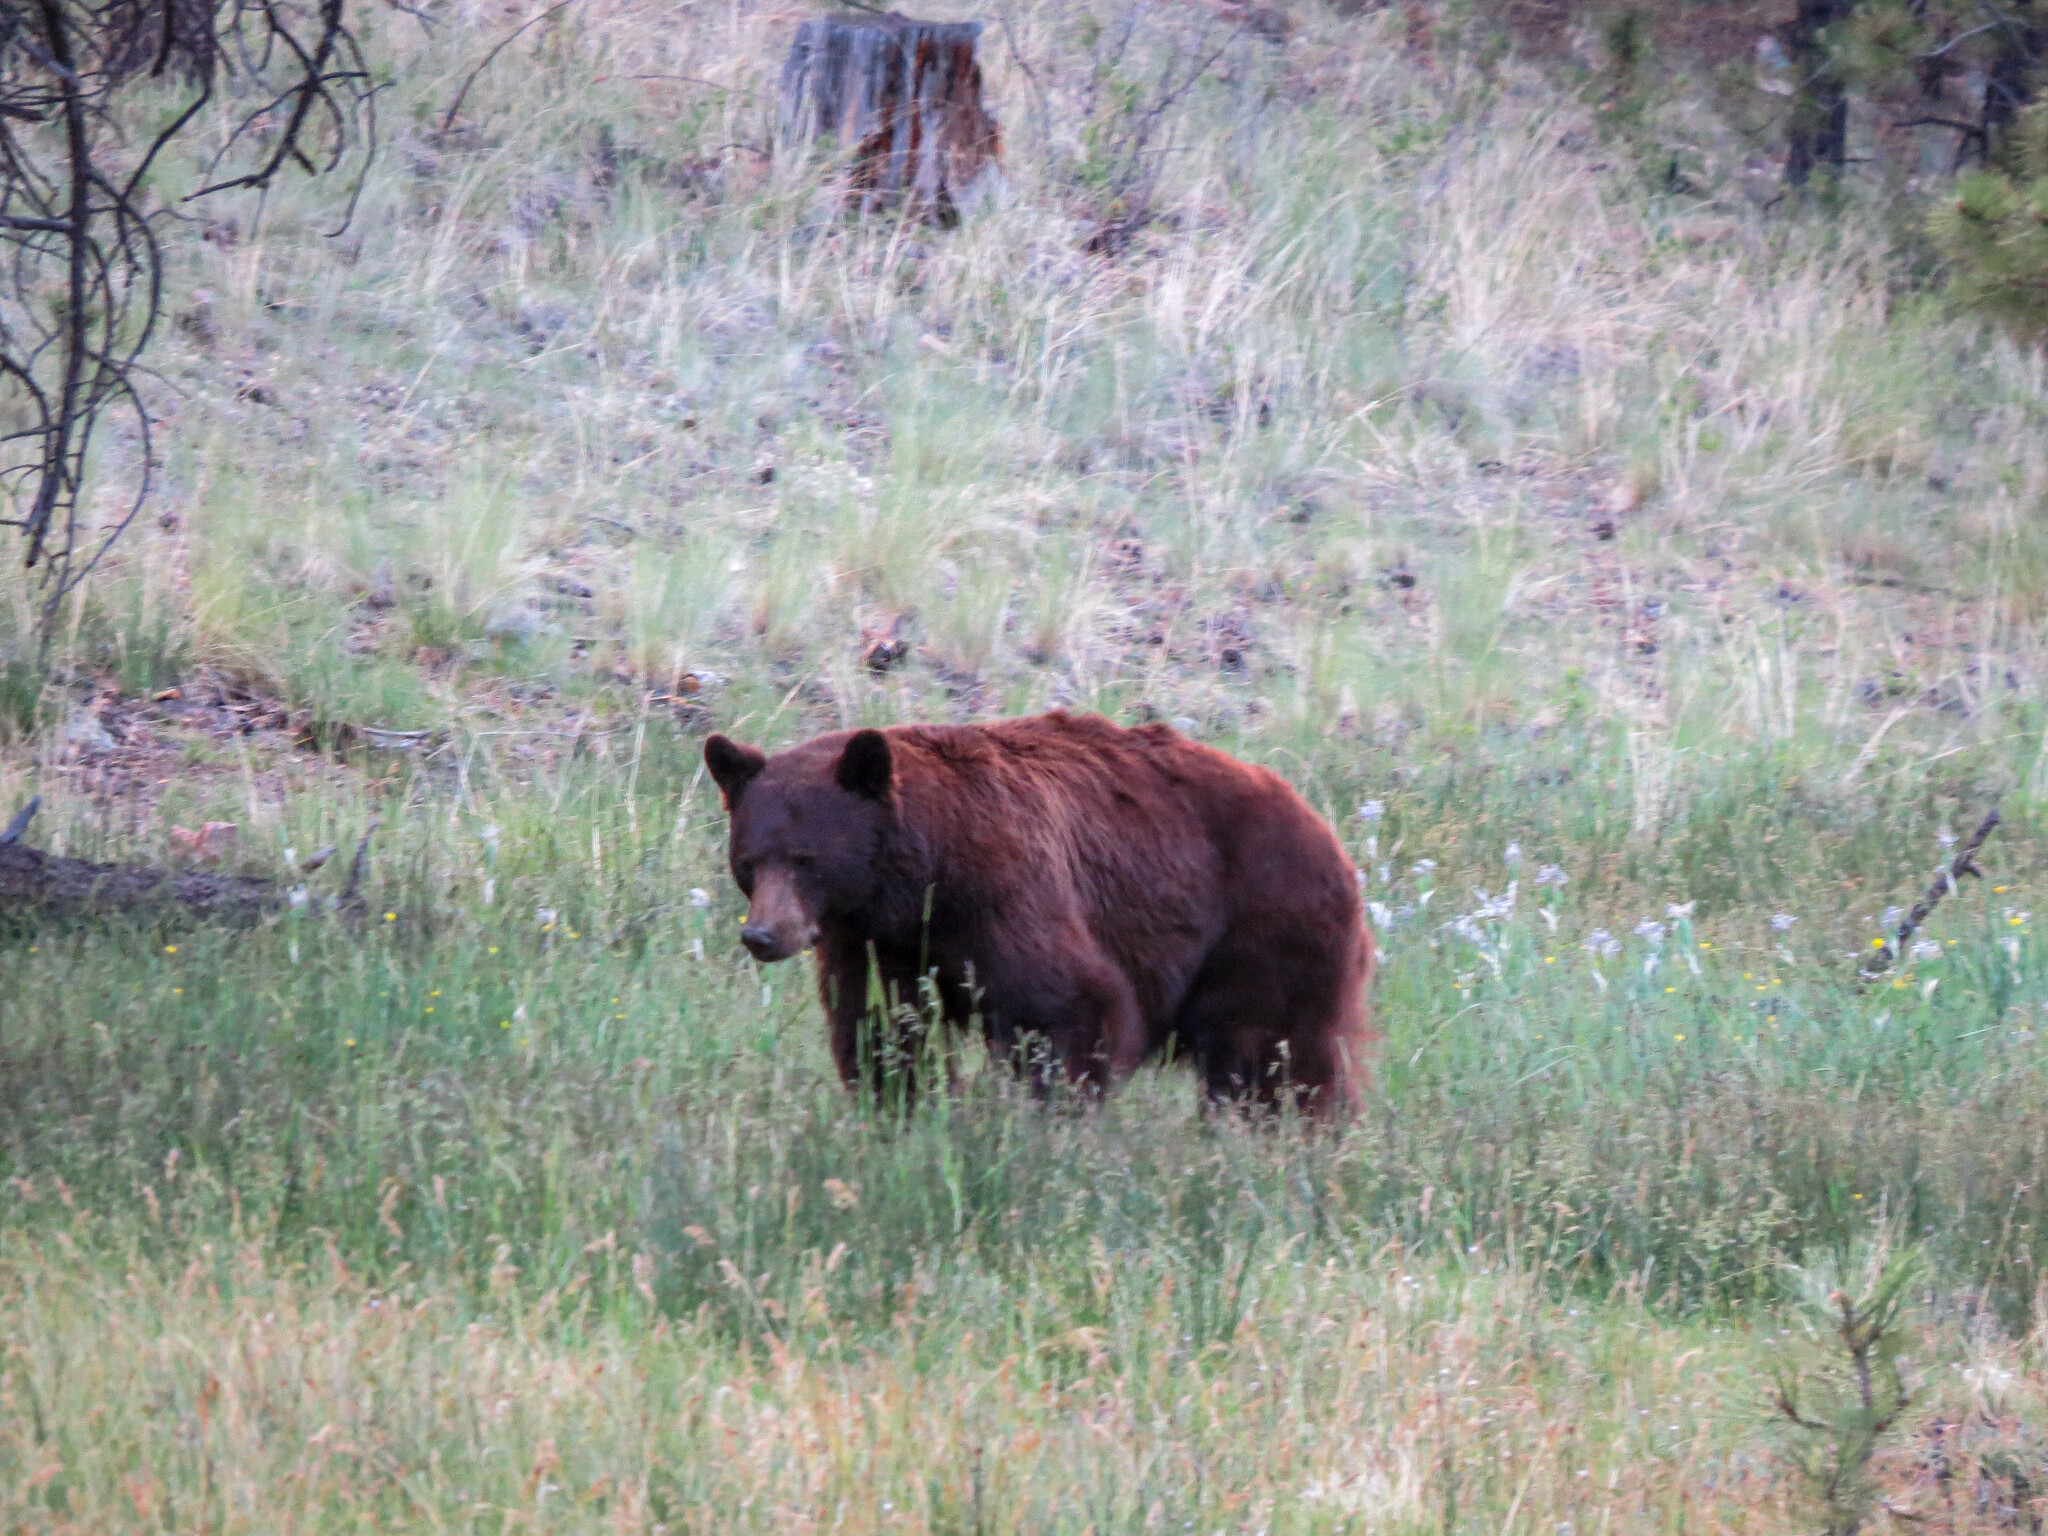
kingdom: Animalia
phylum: Chordata
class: Mammalia
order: Carnivora
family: Ursidae
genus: Ursus
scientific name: Ursus americanus
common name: American black bear
